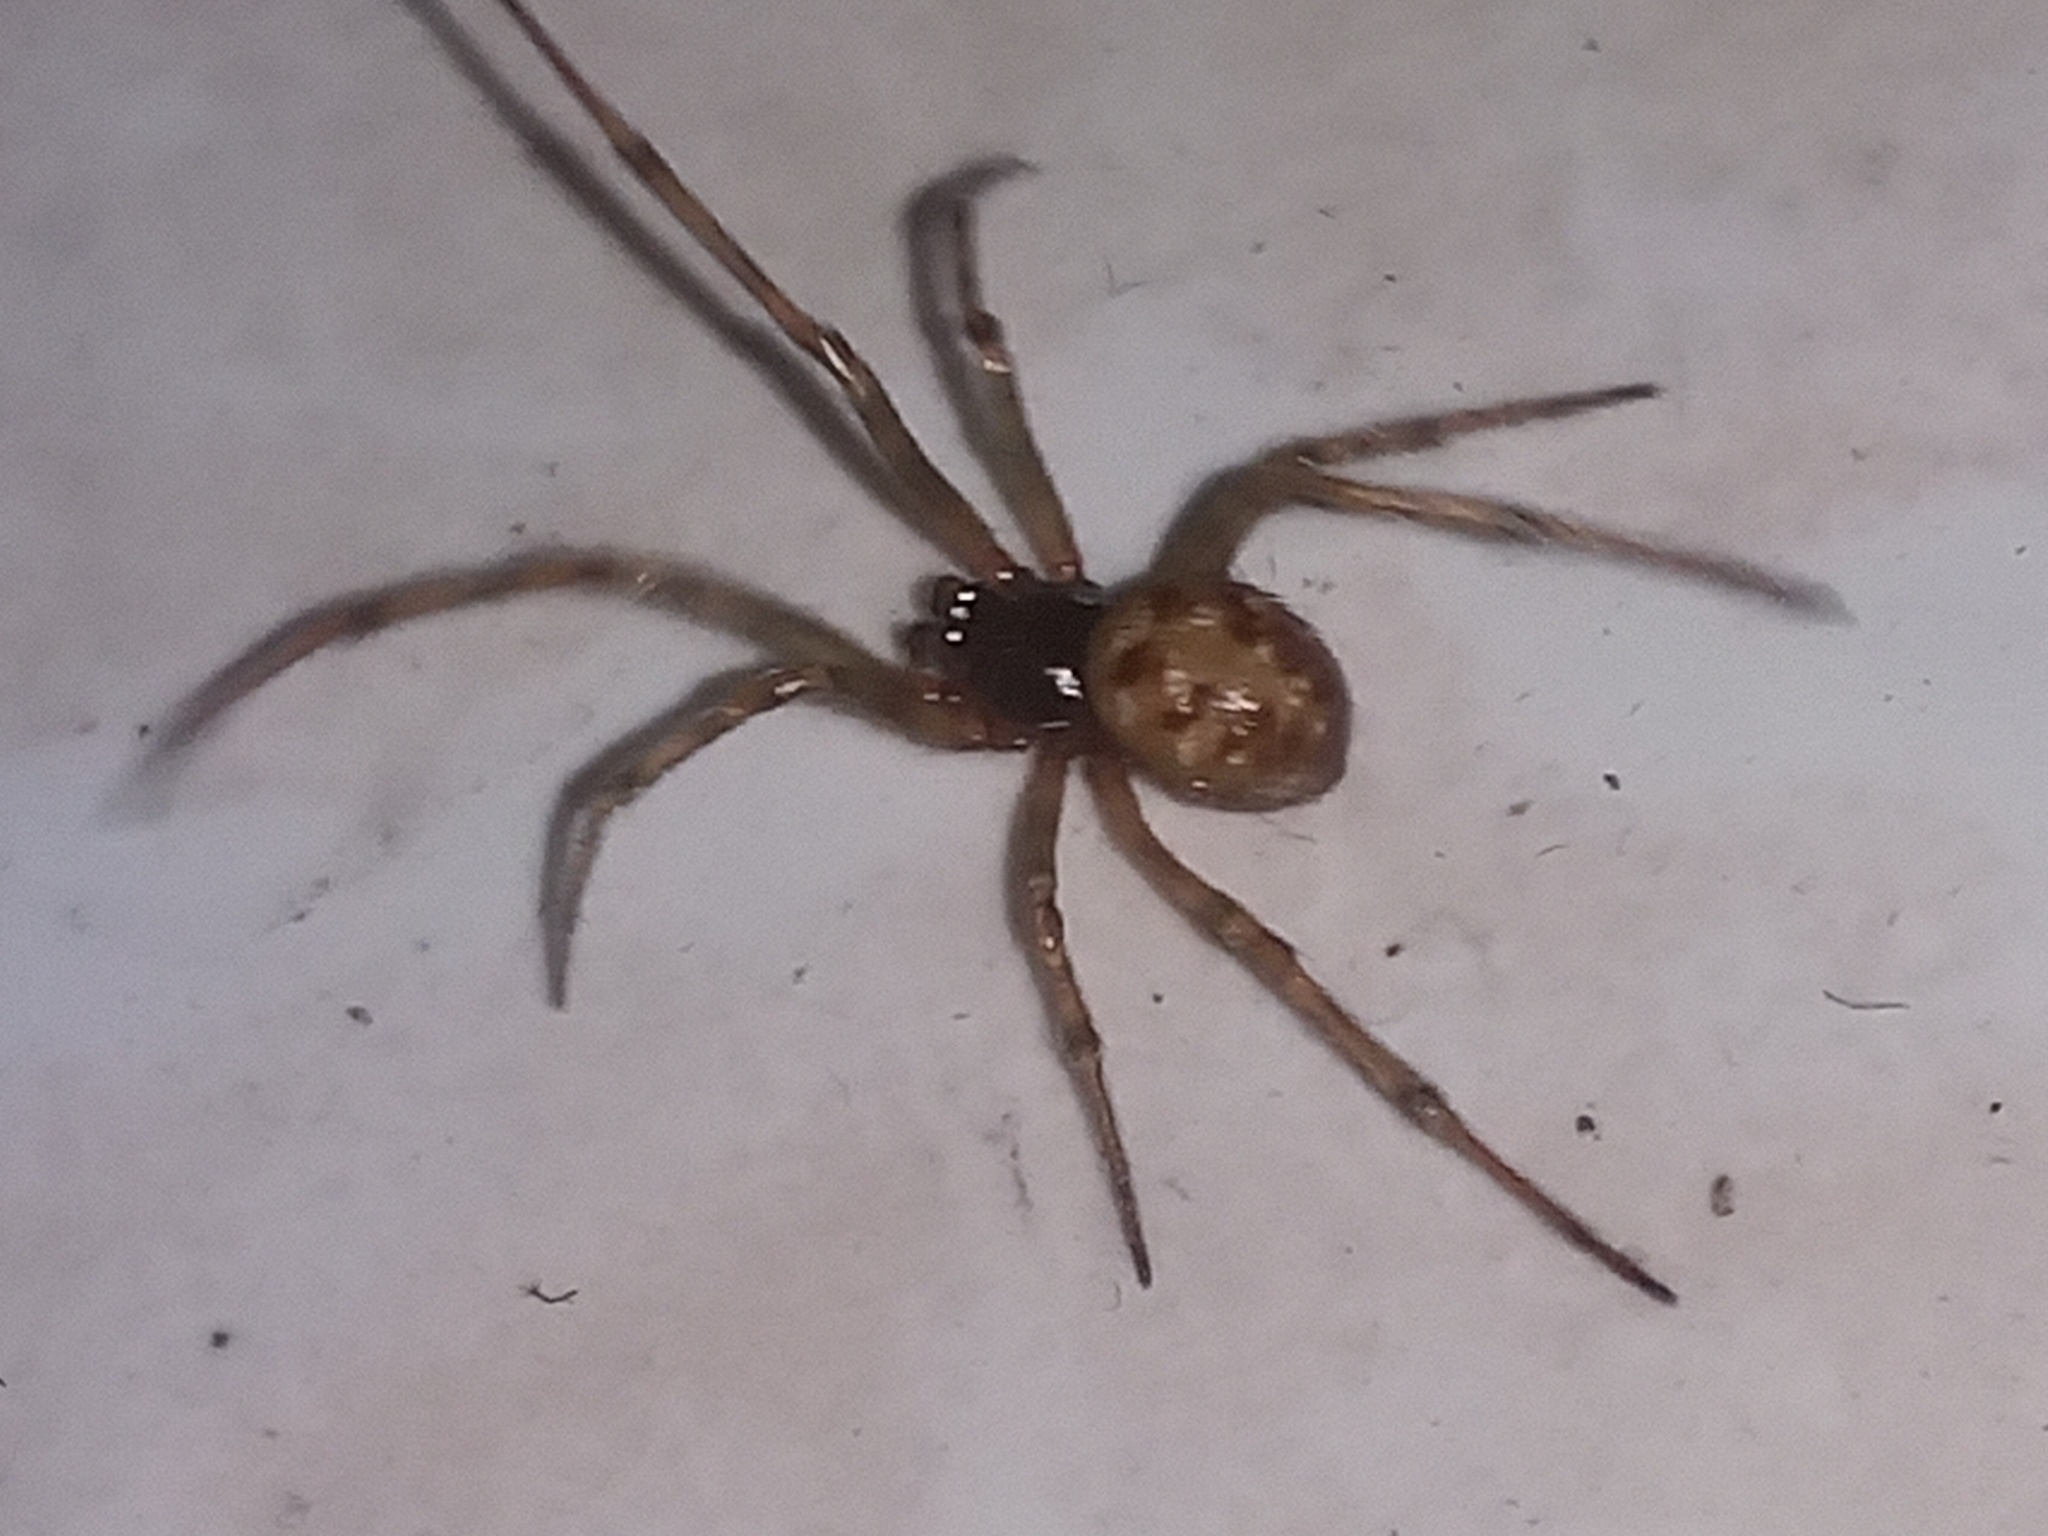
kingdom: Animalia
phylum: Arthropoda
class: Arachnida
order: Araneae
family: Theridiidae
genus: Steatoda
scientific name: Steatoda triangulosa
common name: Triangulate bud spider
